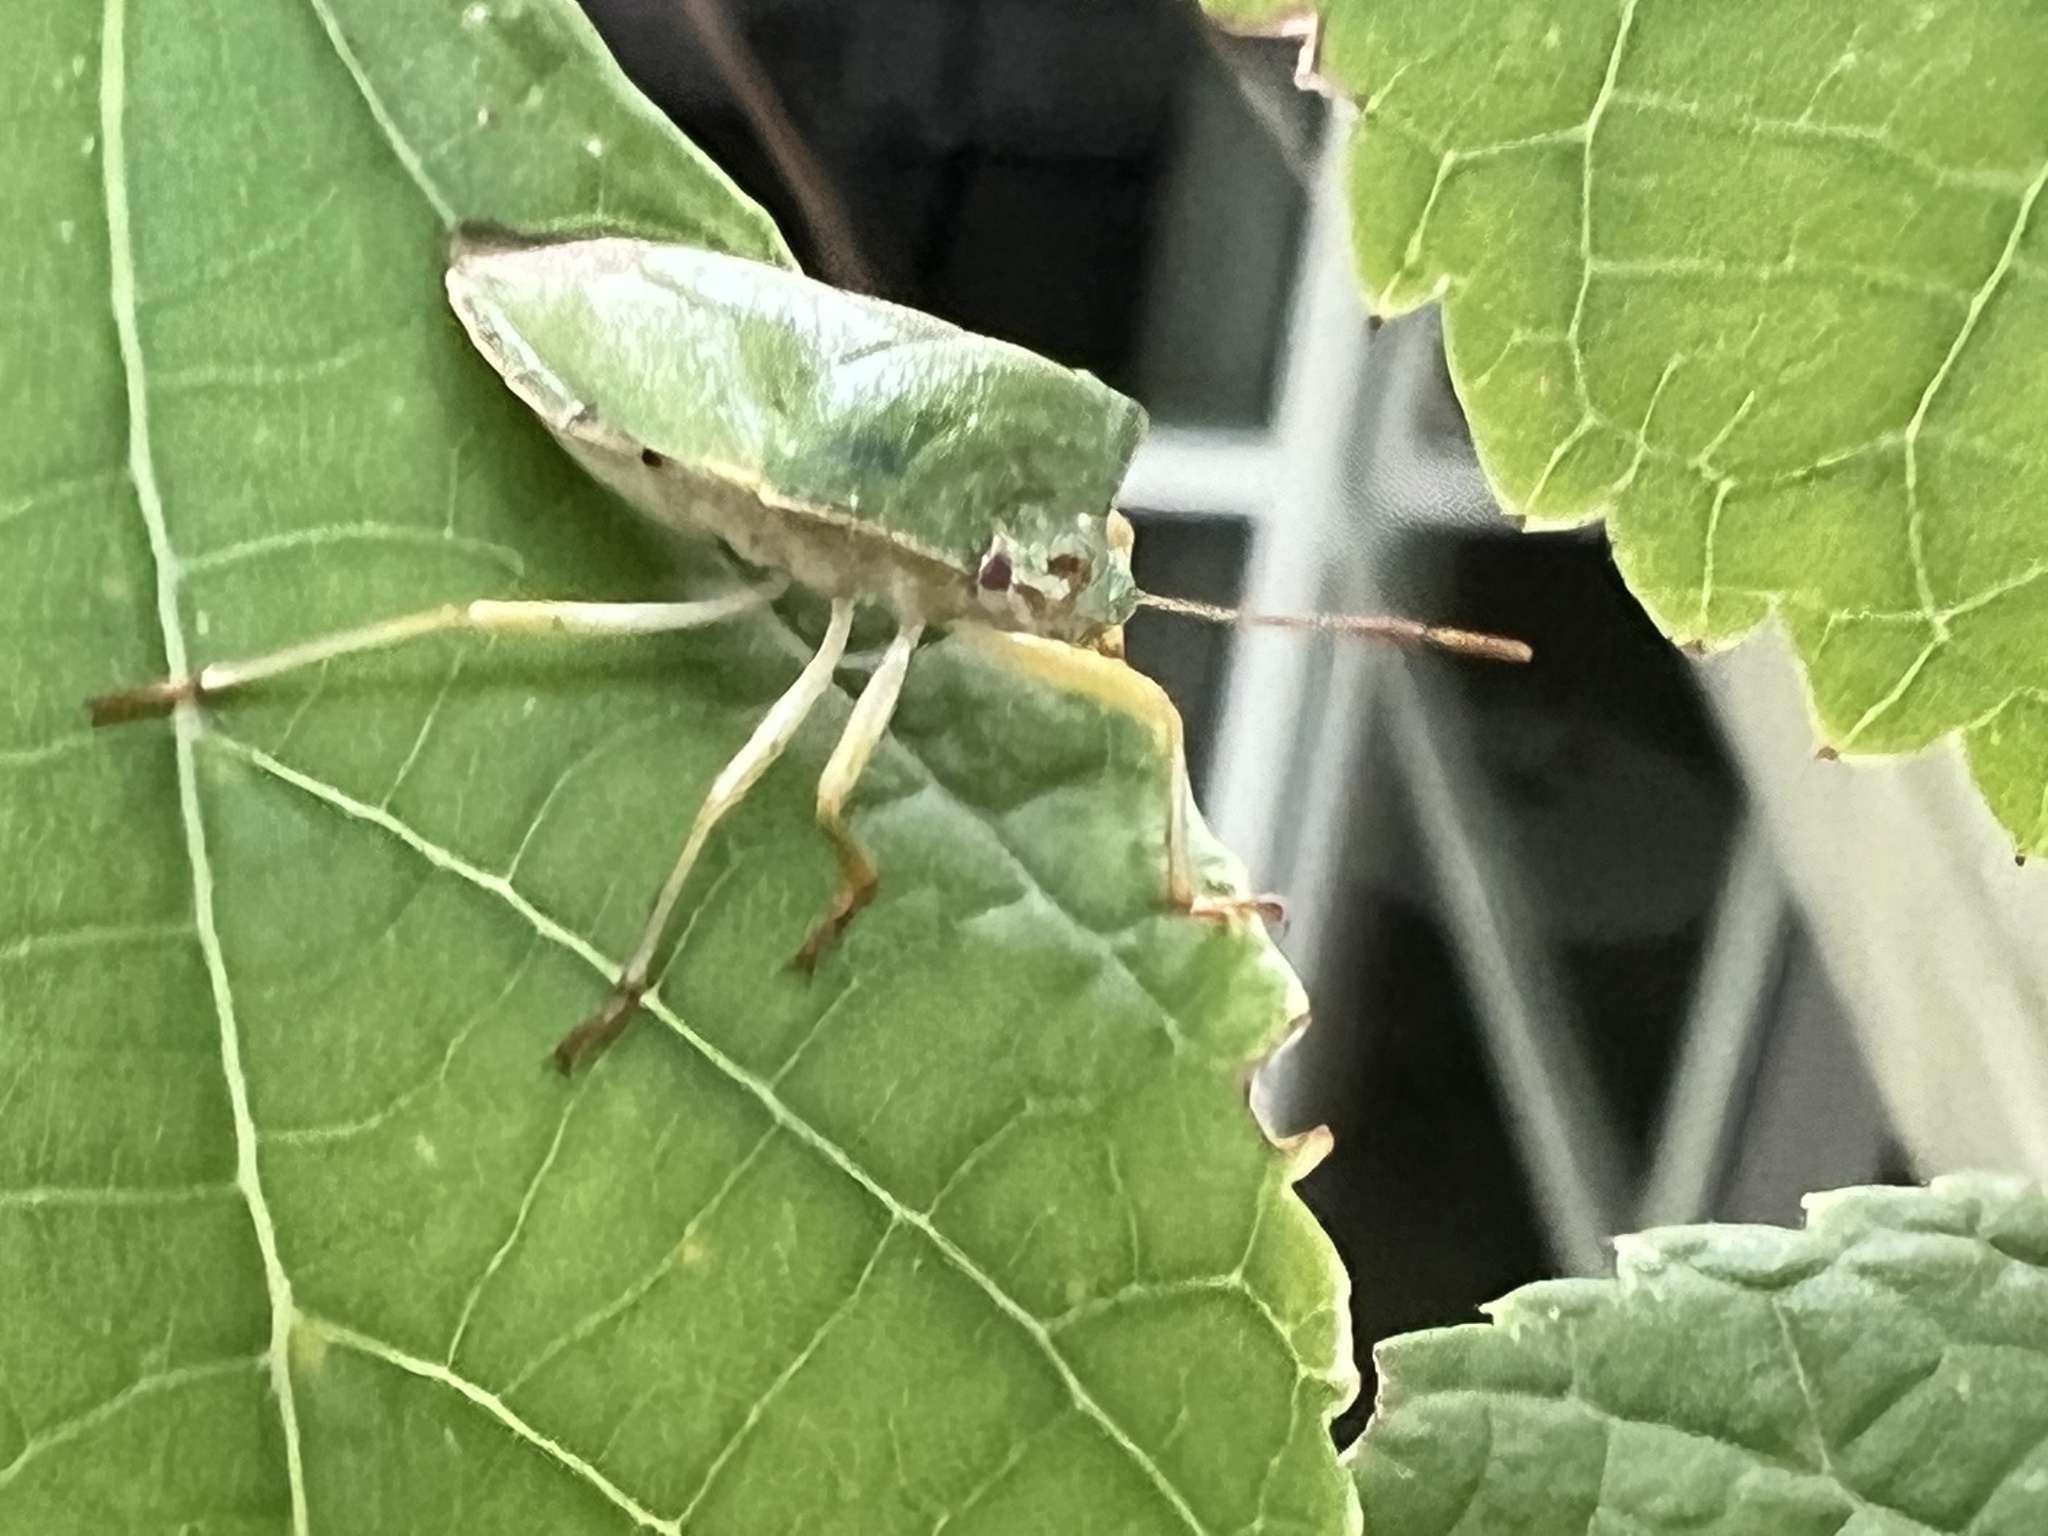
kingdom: Animalia
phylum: Arthropoda
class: Insecta
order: Hemiptera
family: Pentatomidae
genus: Palomena
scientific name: Palomena prasina
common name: Green shieldbug
